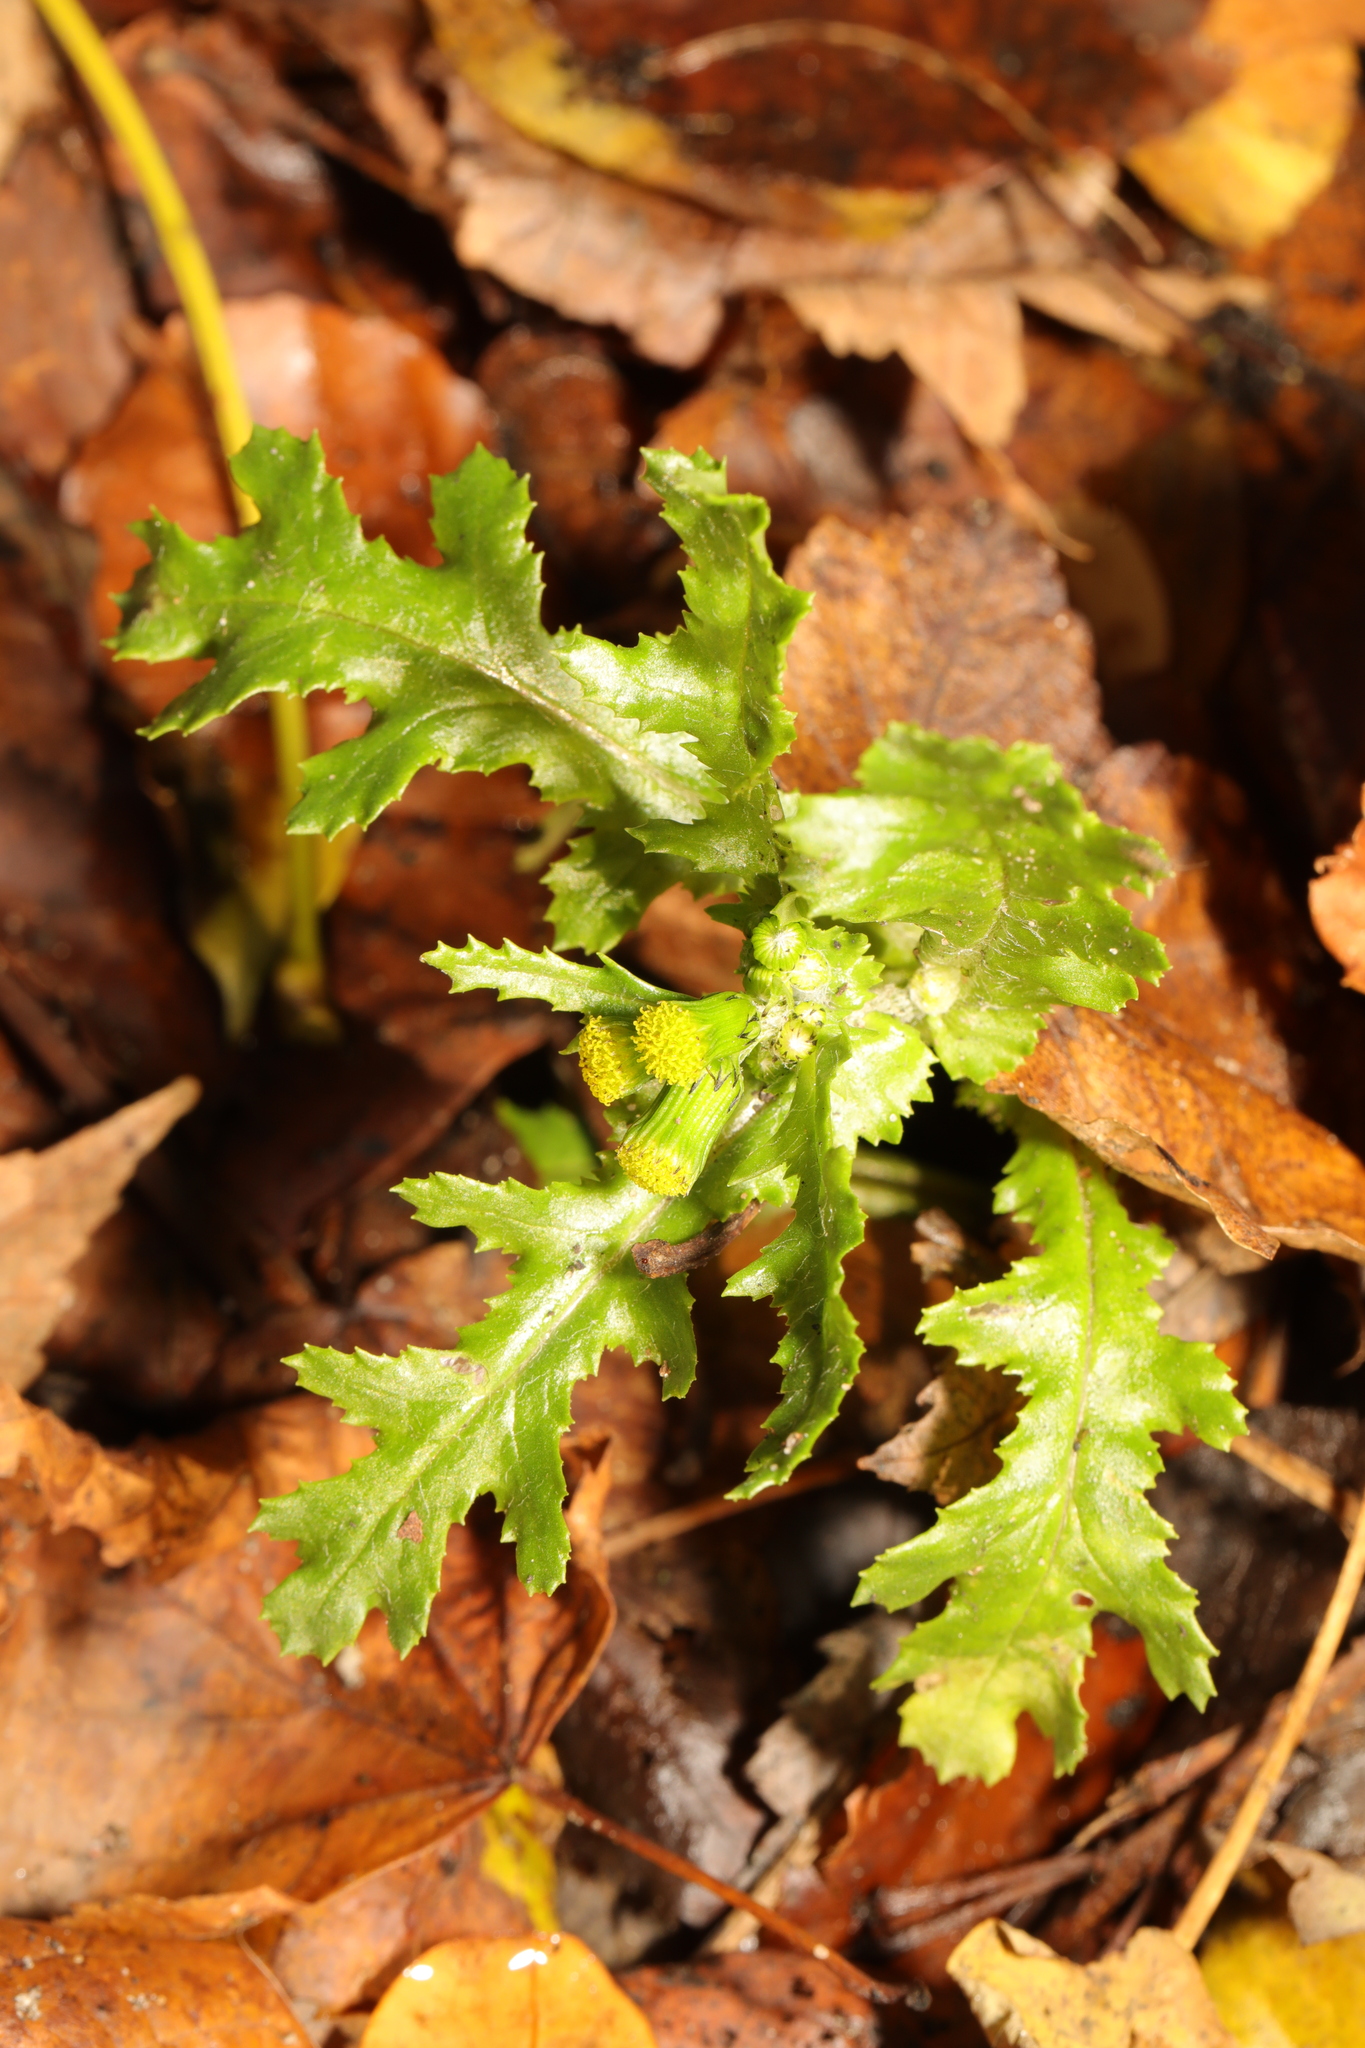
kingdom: Plantae
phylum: Tracheophyta
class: Magnoliopsida
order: Asterales
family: Asteraceae
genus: Senecio
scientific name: Senecio vulgaris
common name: Old-man-in-the-spring
